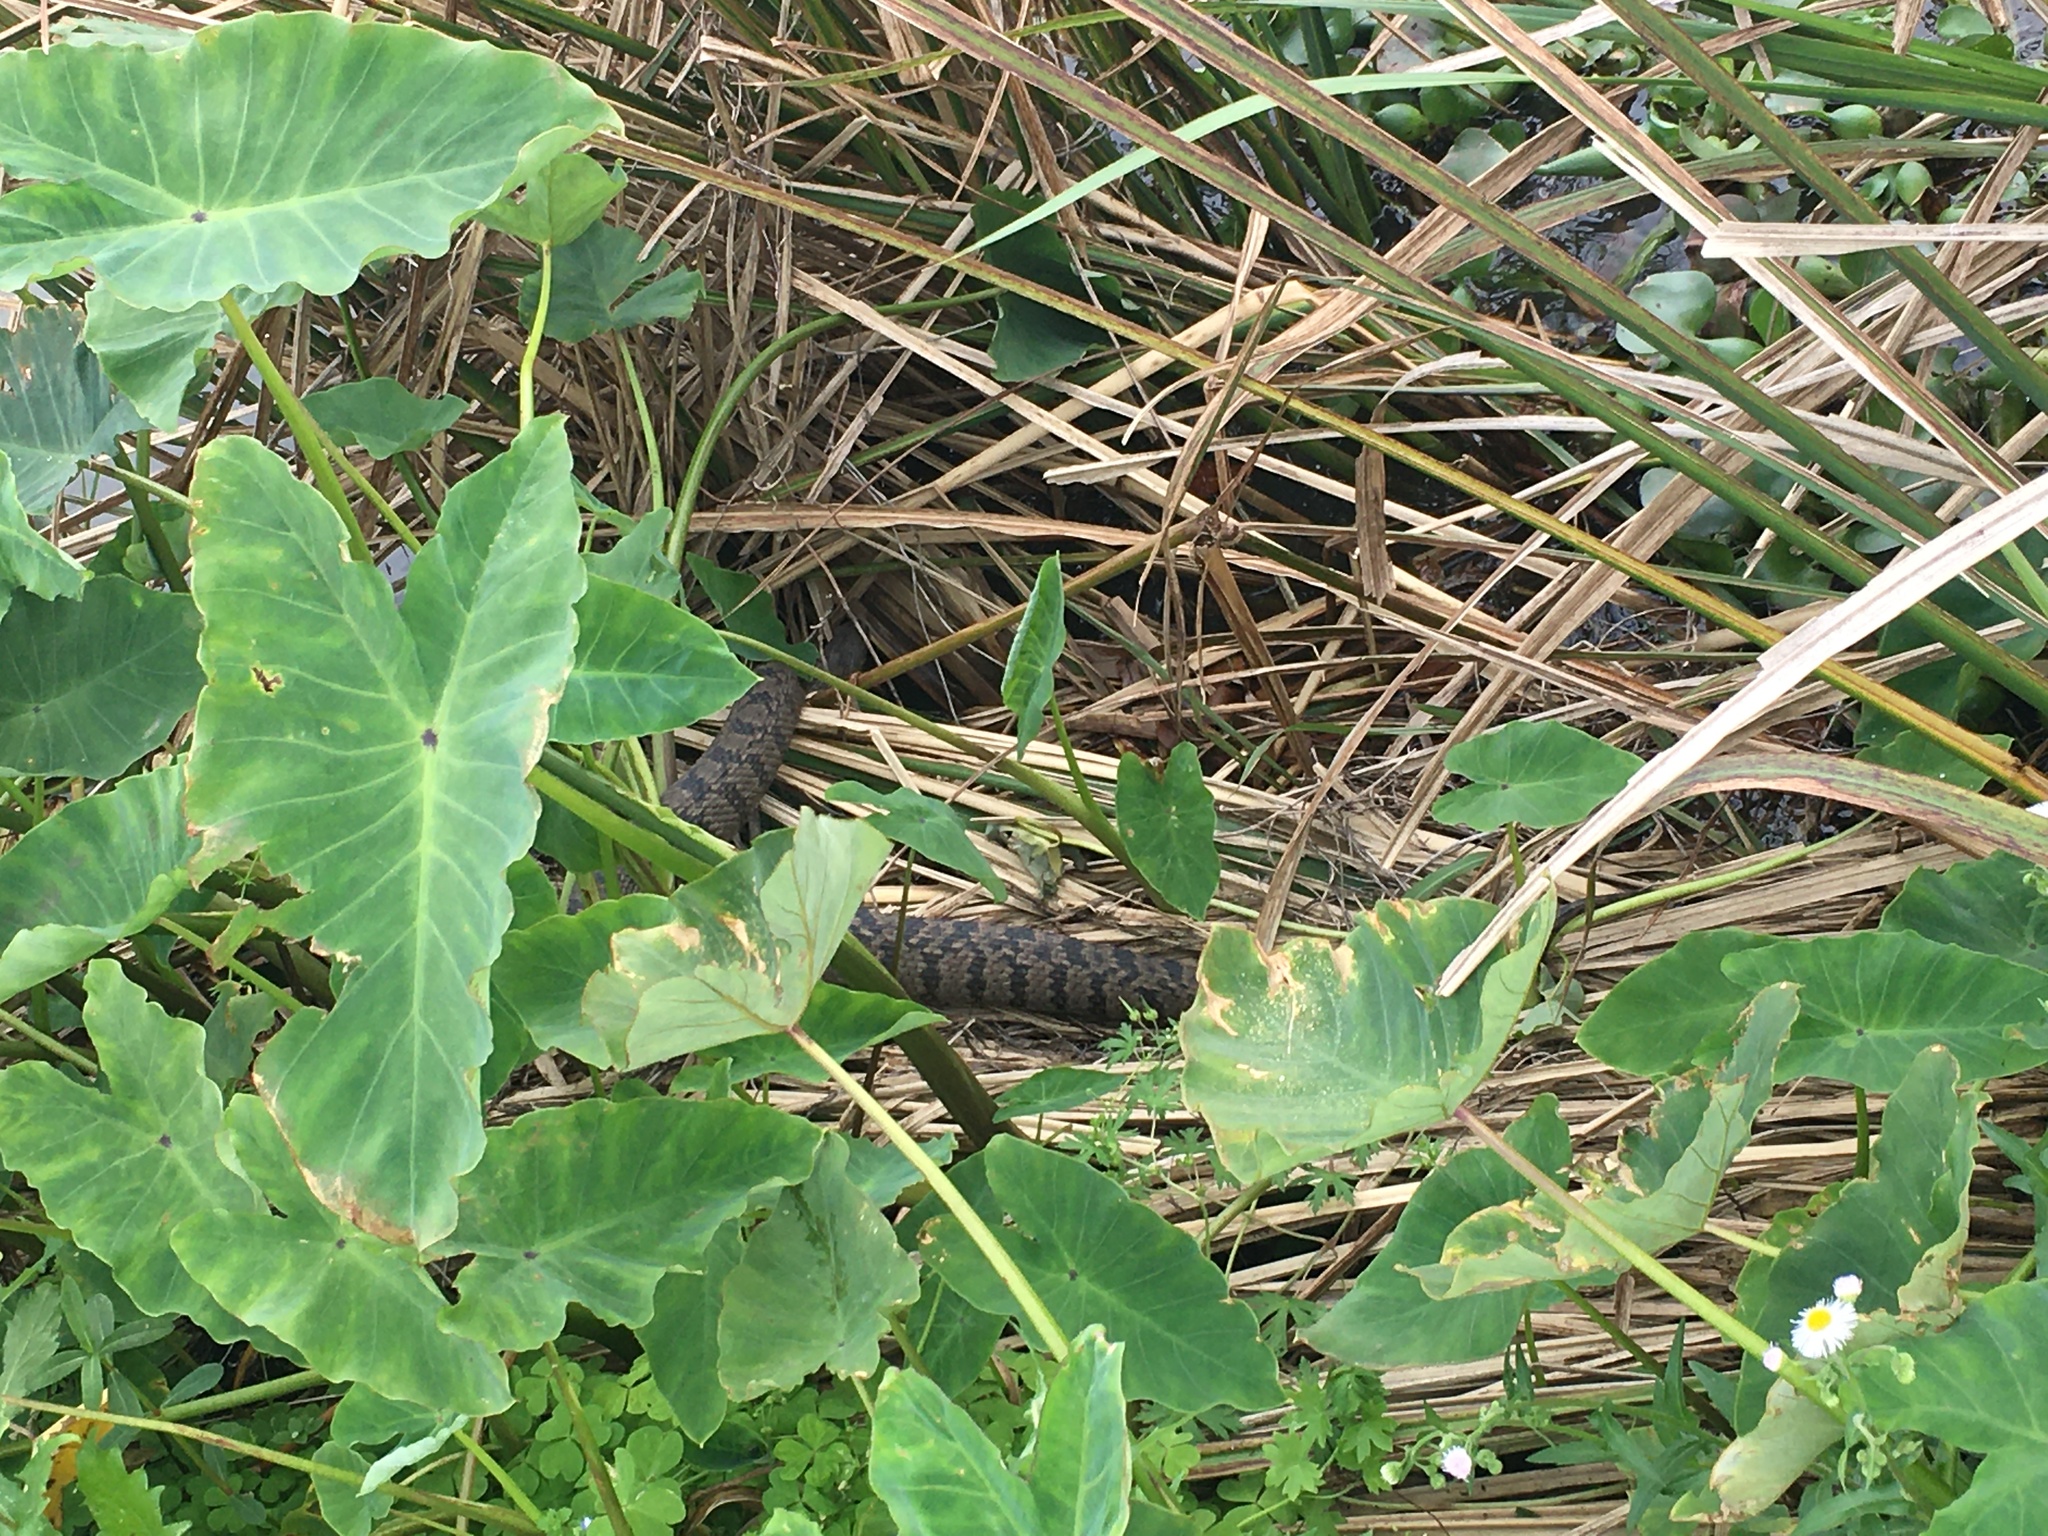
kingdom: Animalia
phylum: Chordata
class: Squamata
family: Colubridae
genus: Nerodia
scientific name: Nerodia rhombifer
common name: Diamondback water snake
